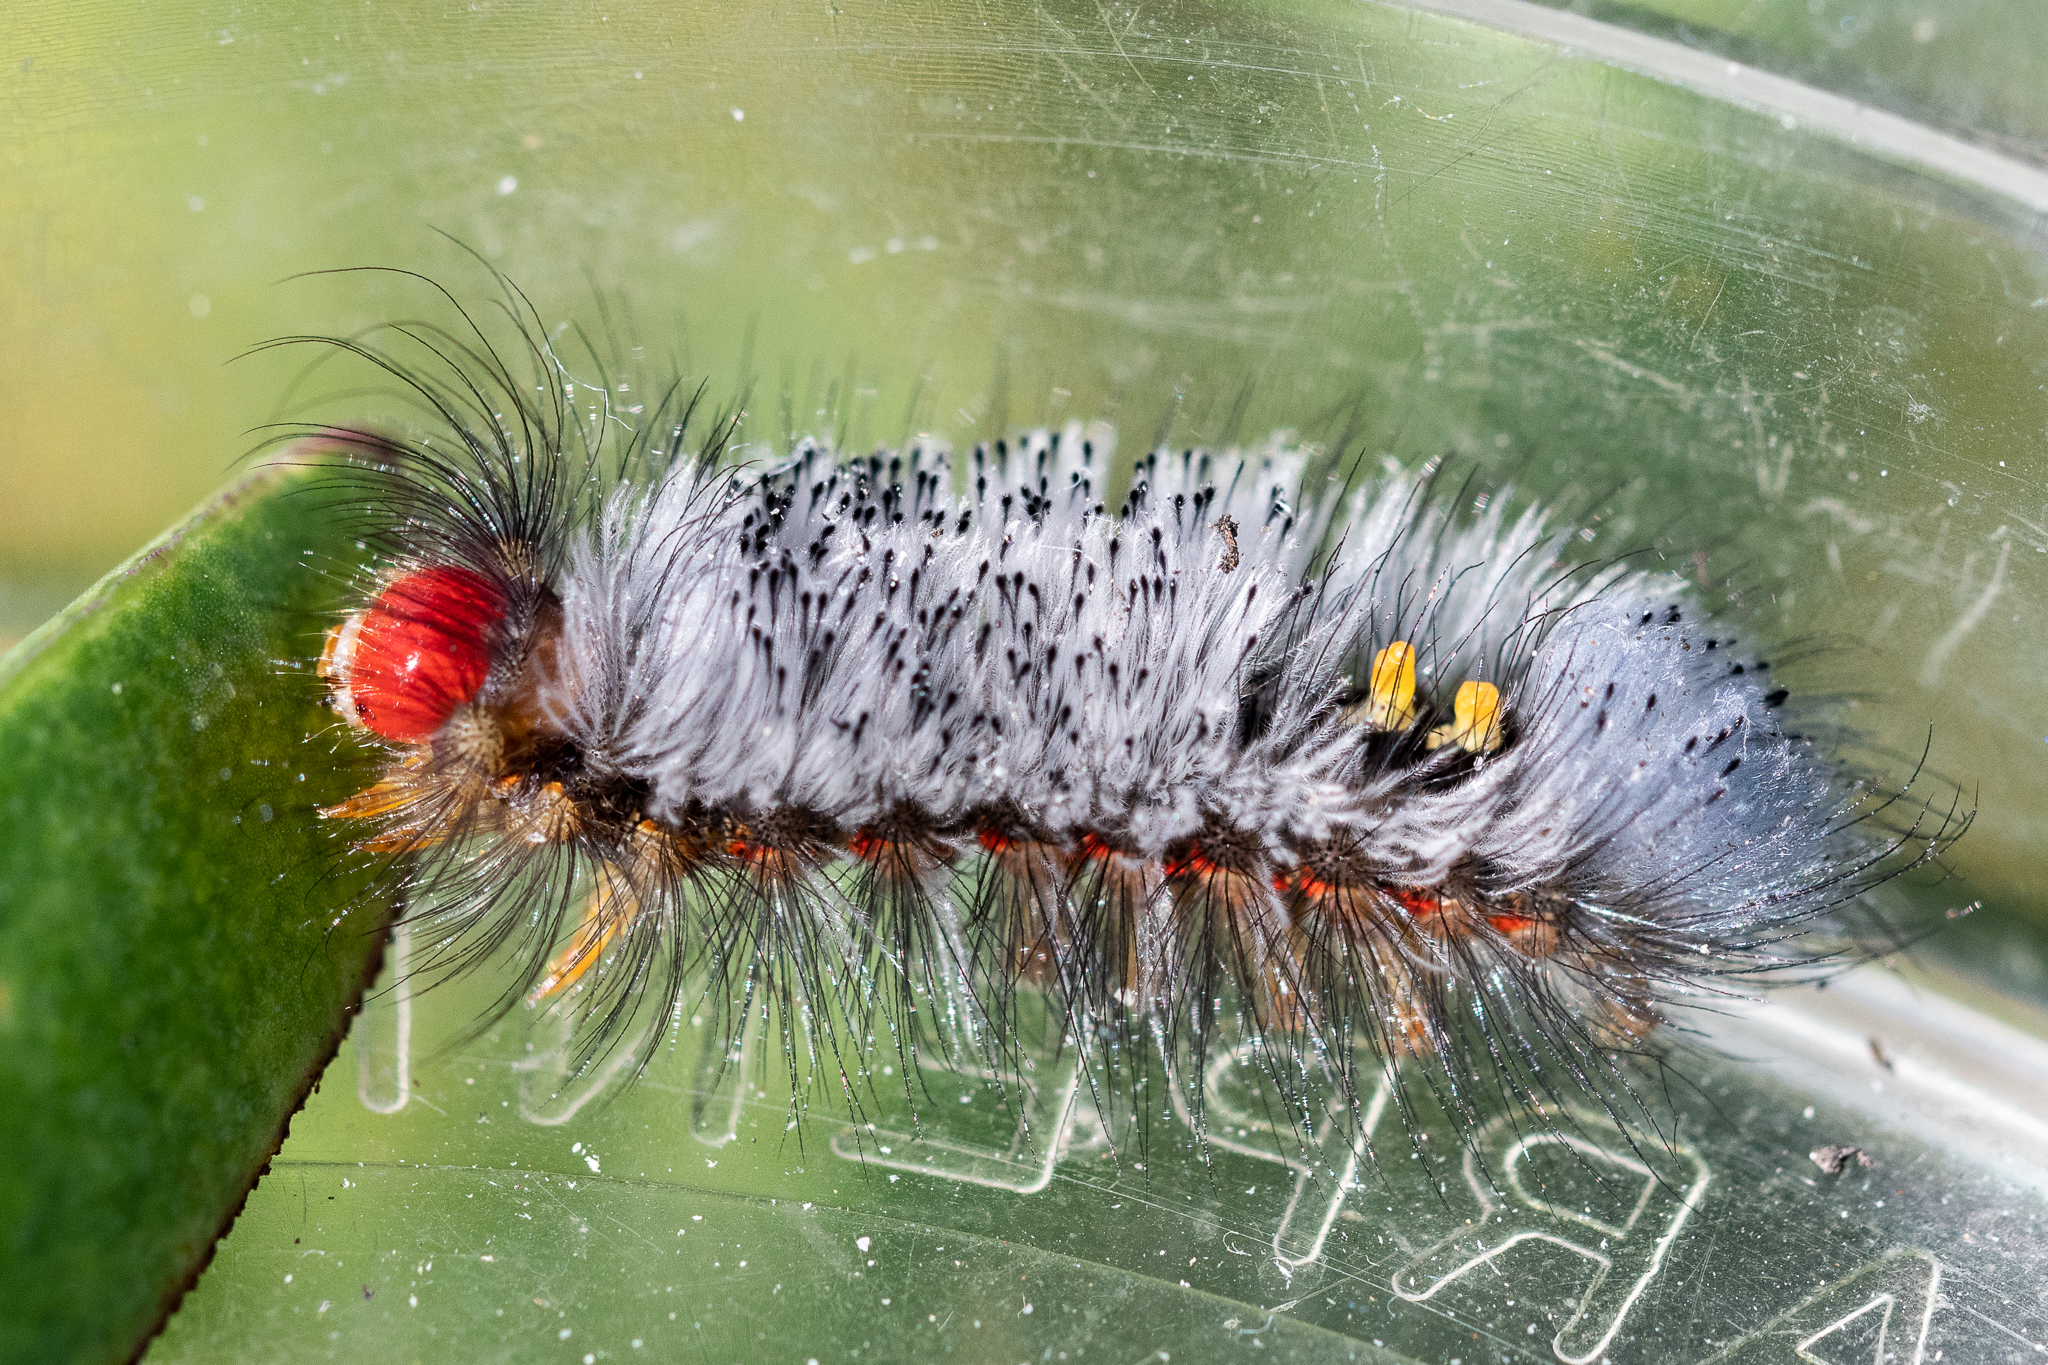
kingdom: Animalia
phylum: Arthropoda
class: Insecta
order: Lepidoptera
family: Erebidae
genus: Orgyia
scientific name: Orgyia tricolor
